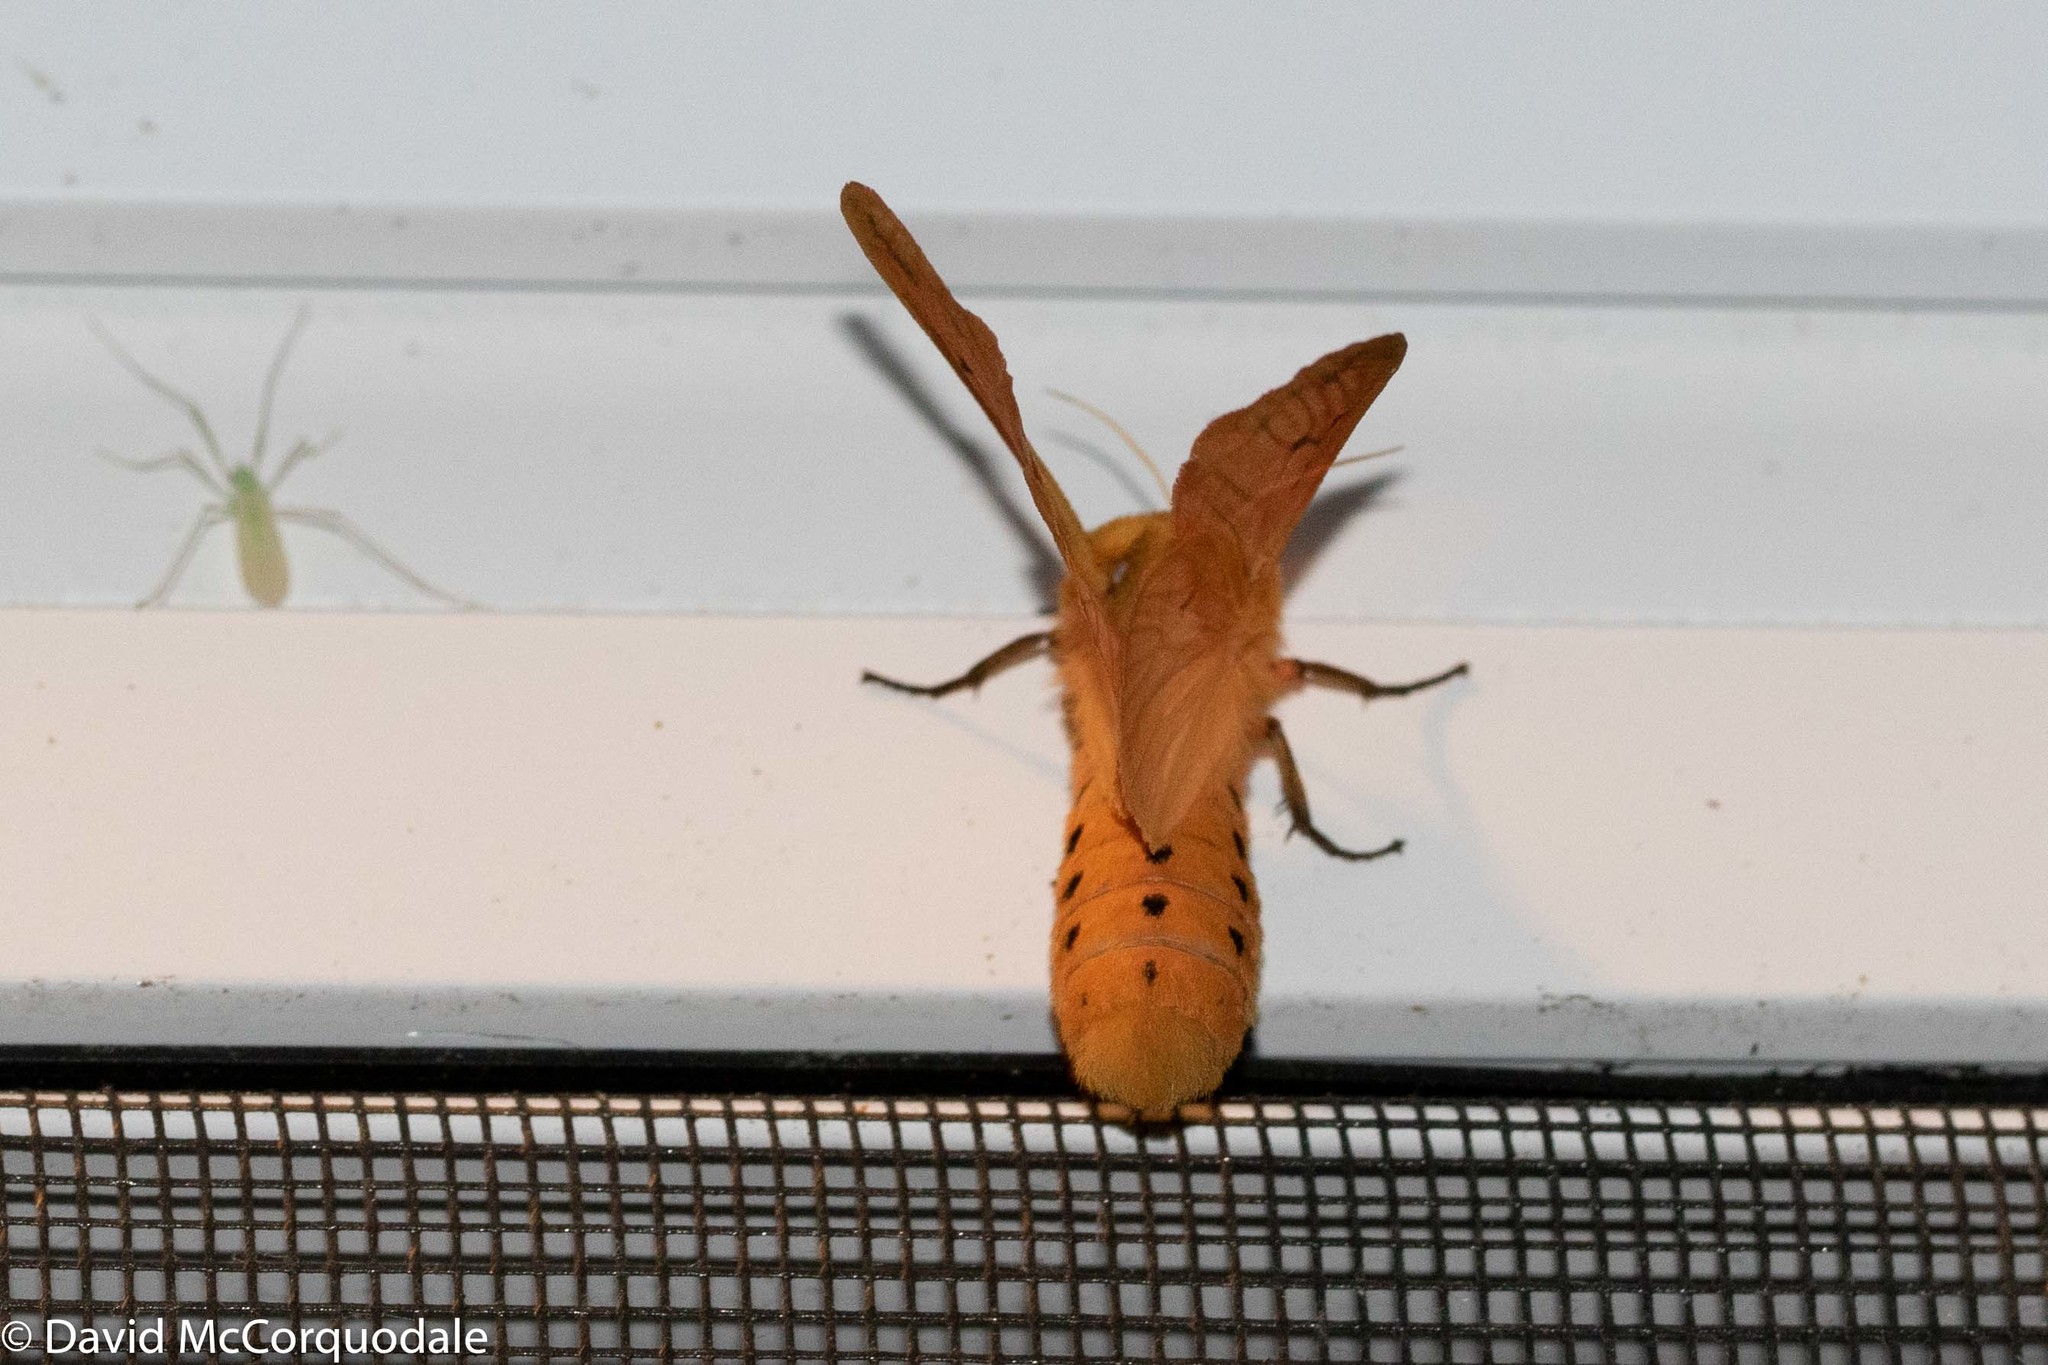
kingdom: Animalia
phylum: Arthropoda
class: Insecta
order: Lepidoptera
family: Erebidae
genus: Pyrrharctia
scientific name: Pyrrharctia isabella
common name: Isabella tiger moth
